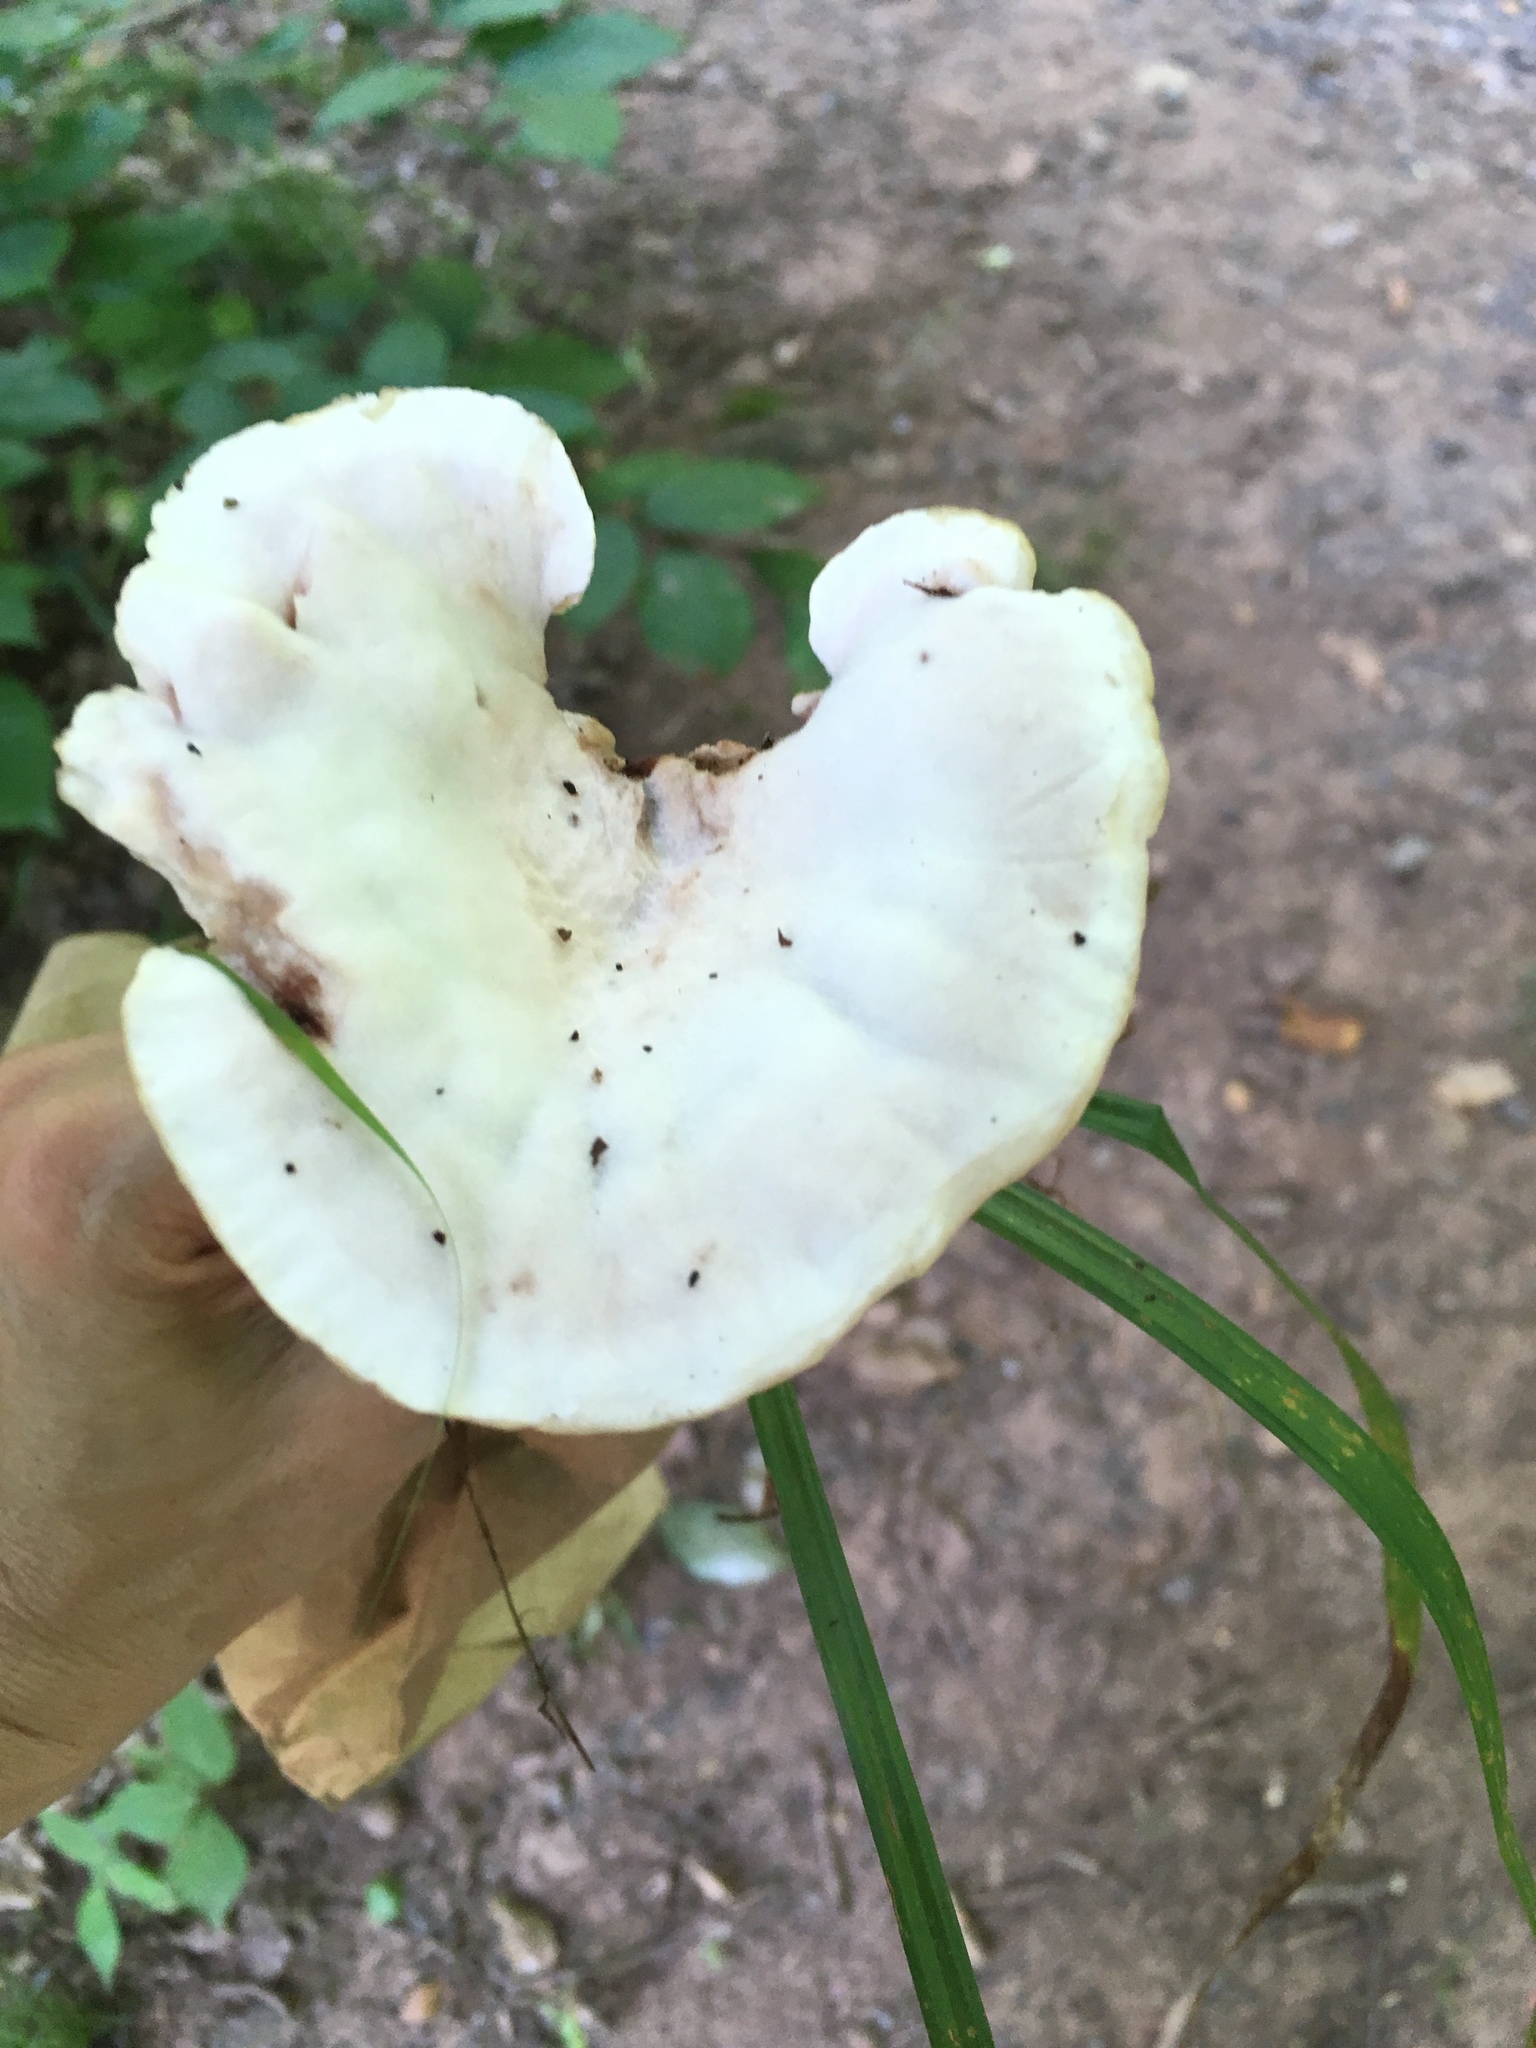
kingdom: Fungi
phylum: Basidiomycota
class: Agaricomycetes
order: Polyporales
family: Podoscyphaceae
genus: Abortiporus
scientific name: Abortiporus biennis
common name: Blushing rosette
